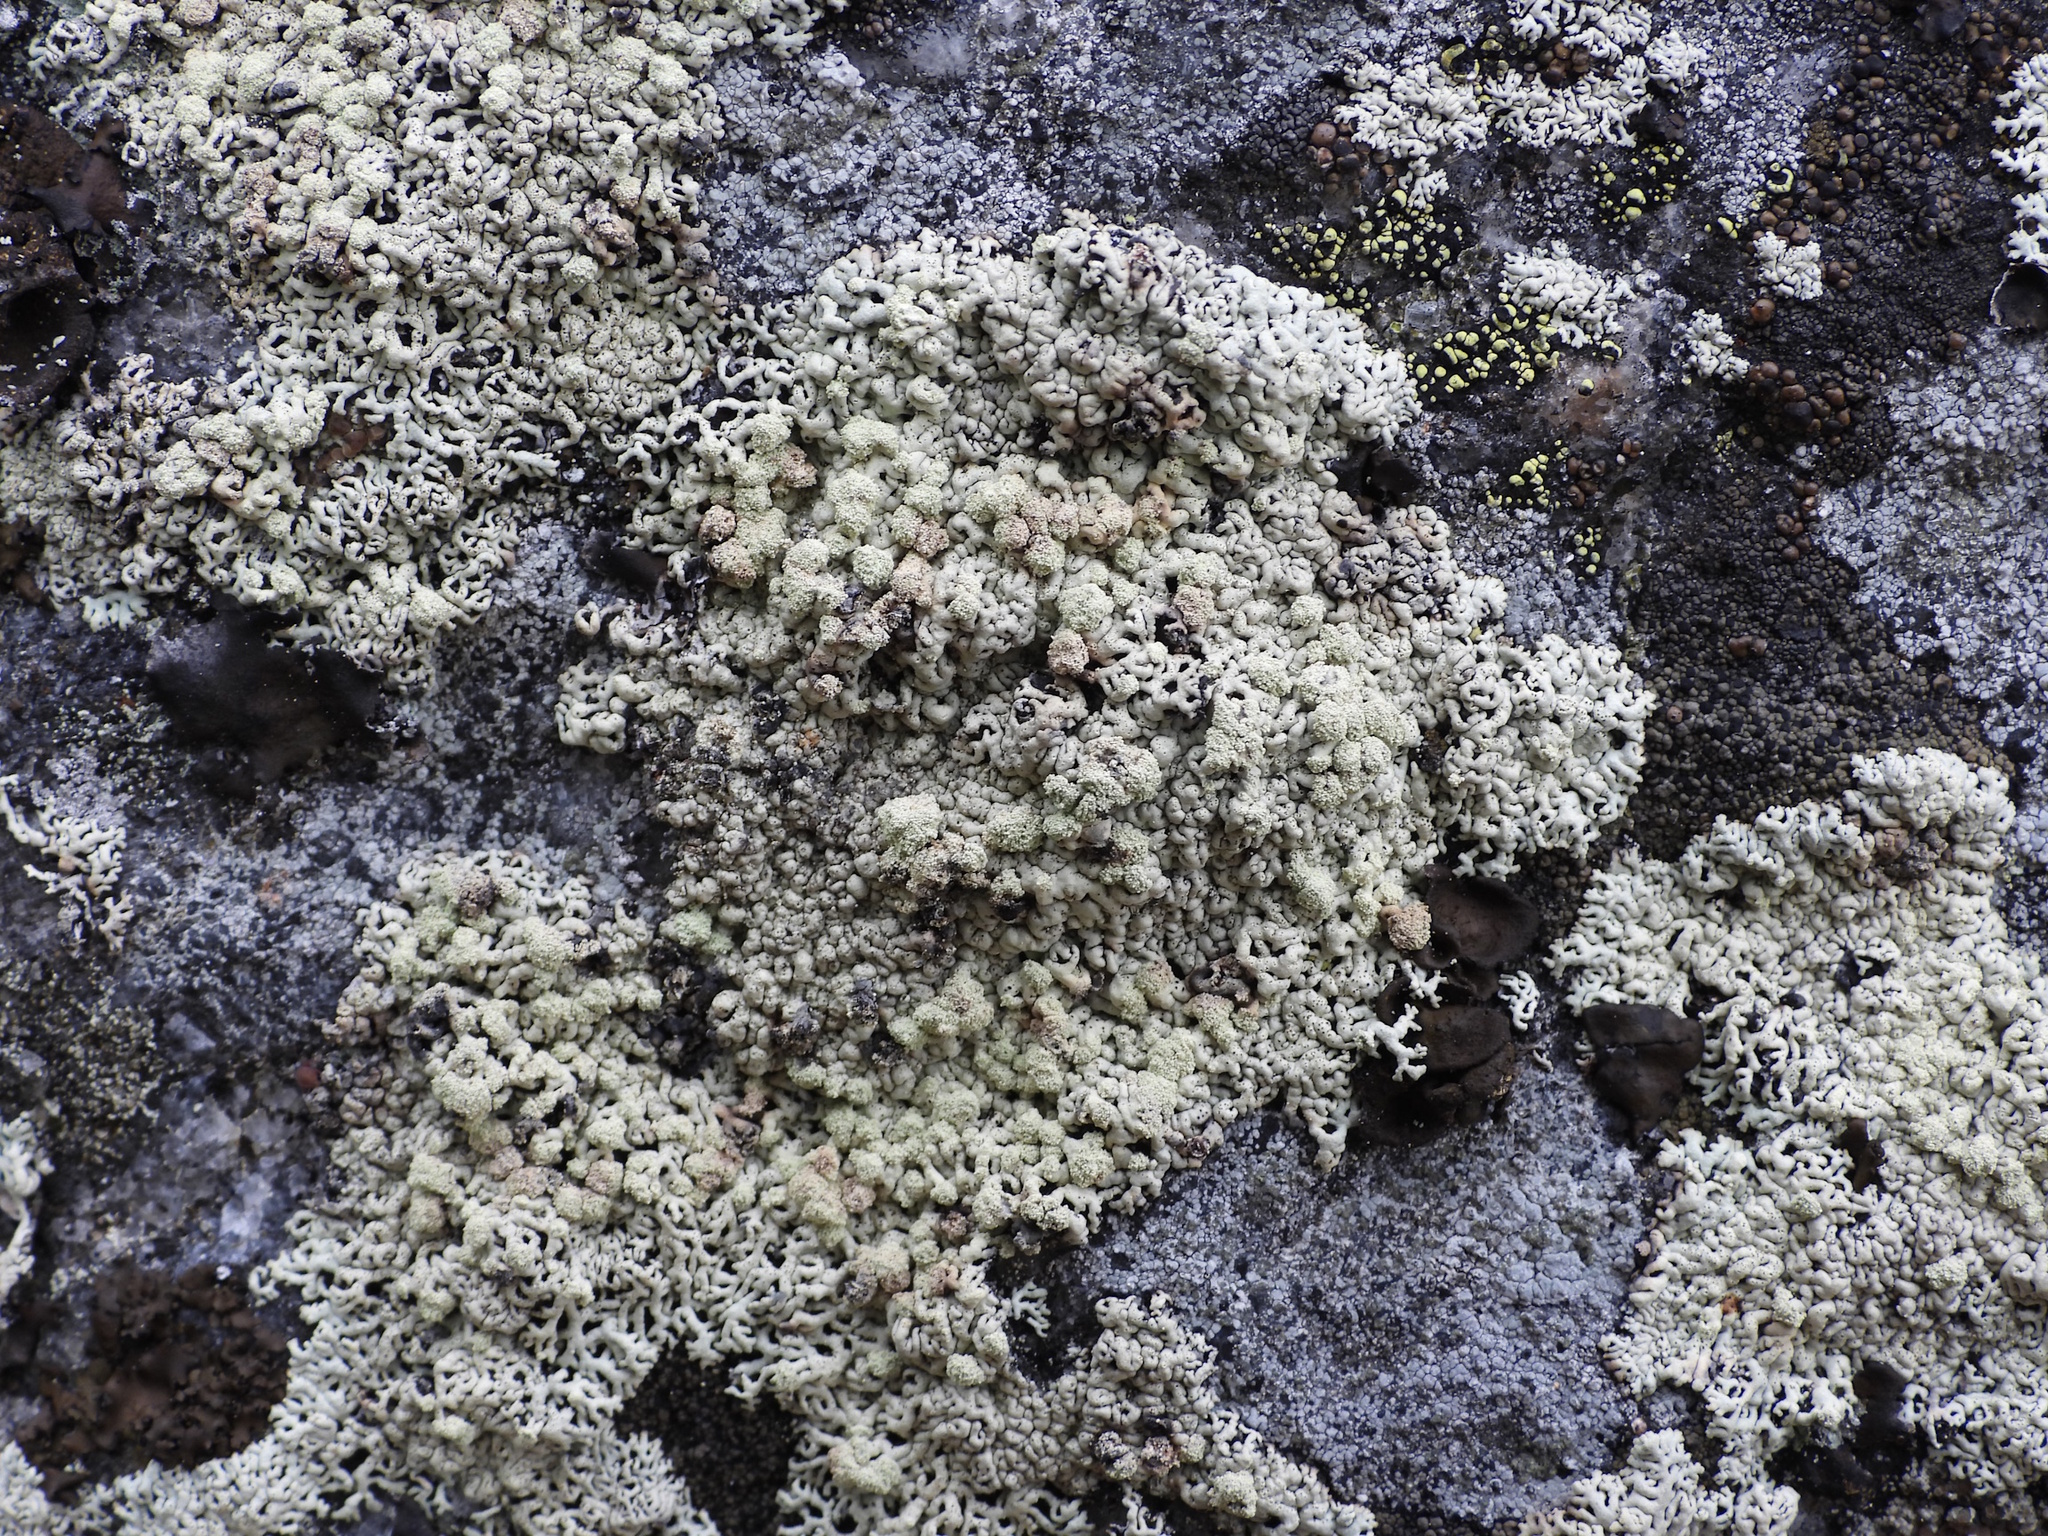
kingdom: Fungi
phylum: Ascomycota
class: Lecanoromycetes
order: Lecanorales
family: Parmeliaceae
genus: Arctoparmelia
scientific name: Arctoparmelia incurva
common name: Bent ring lichen
